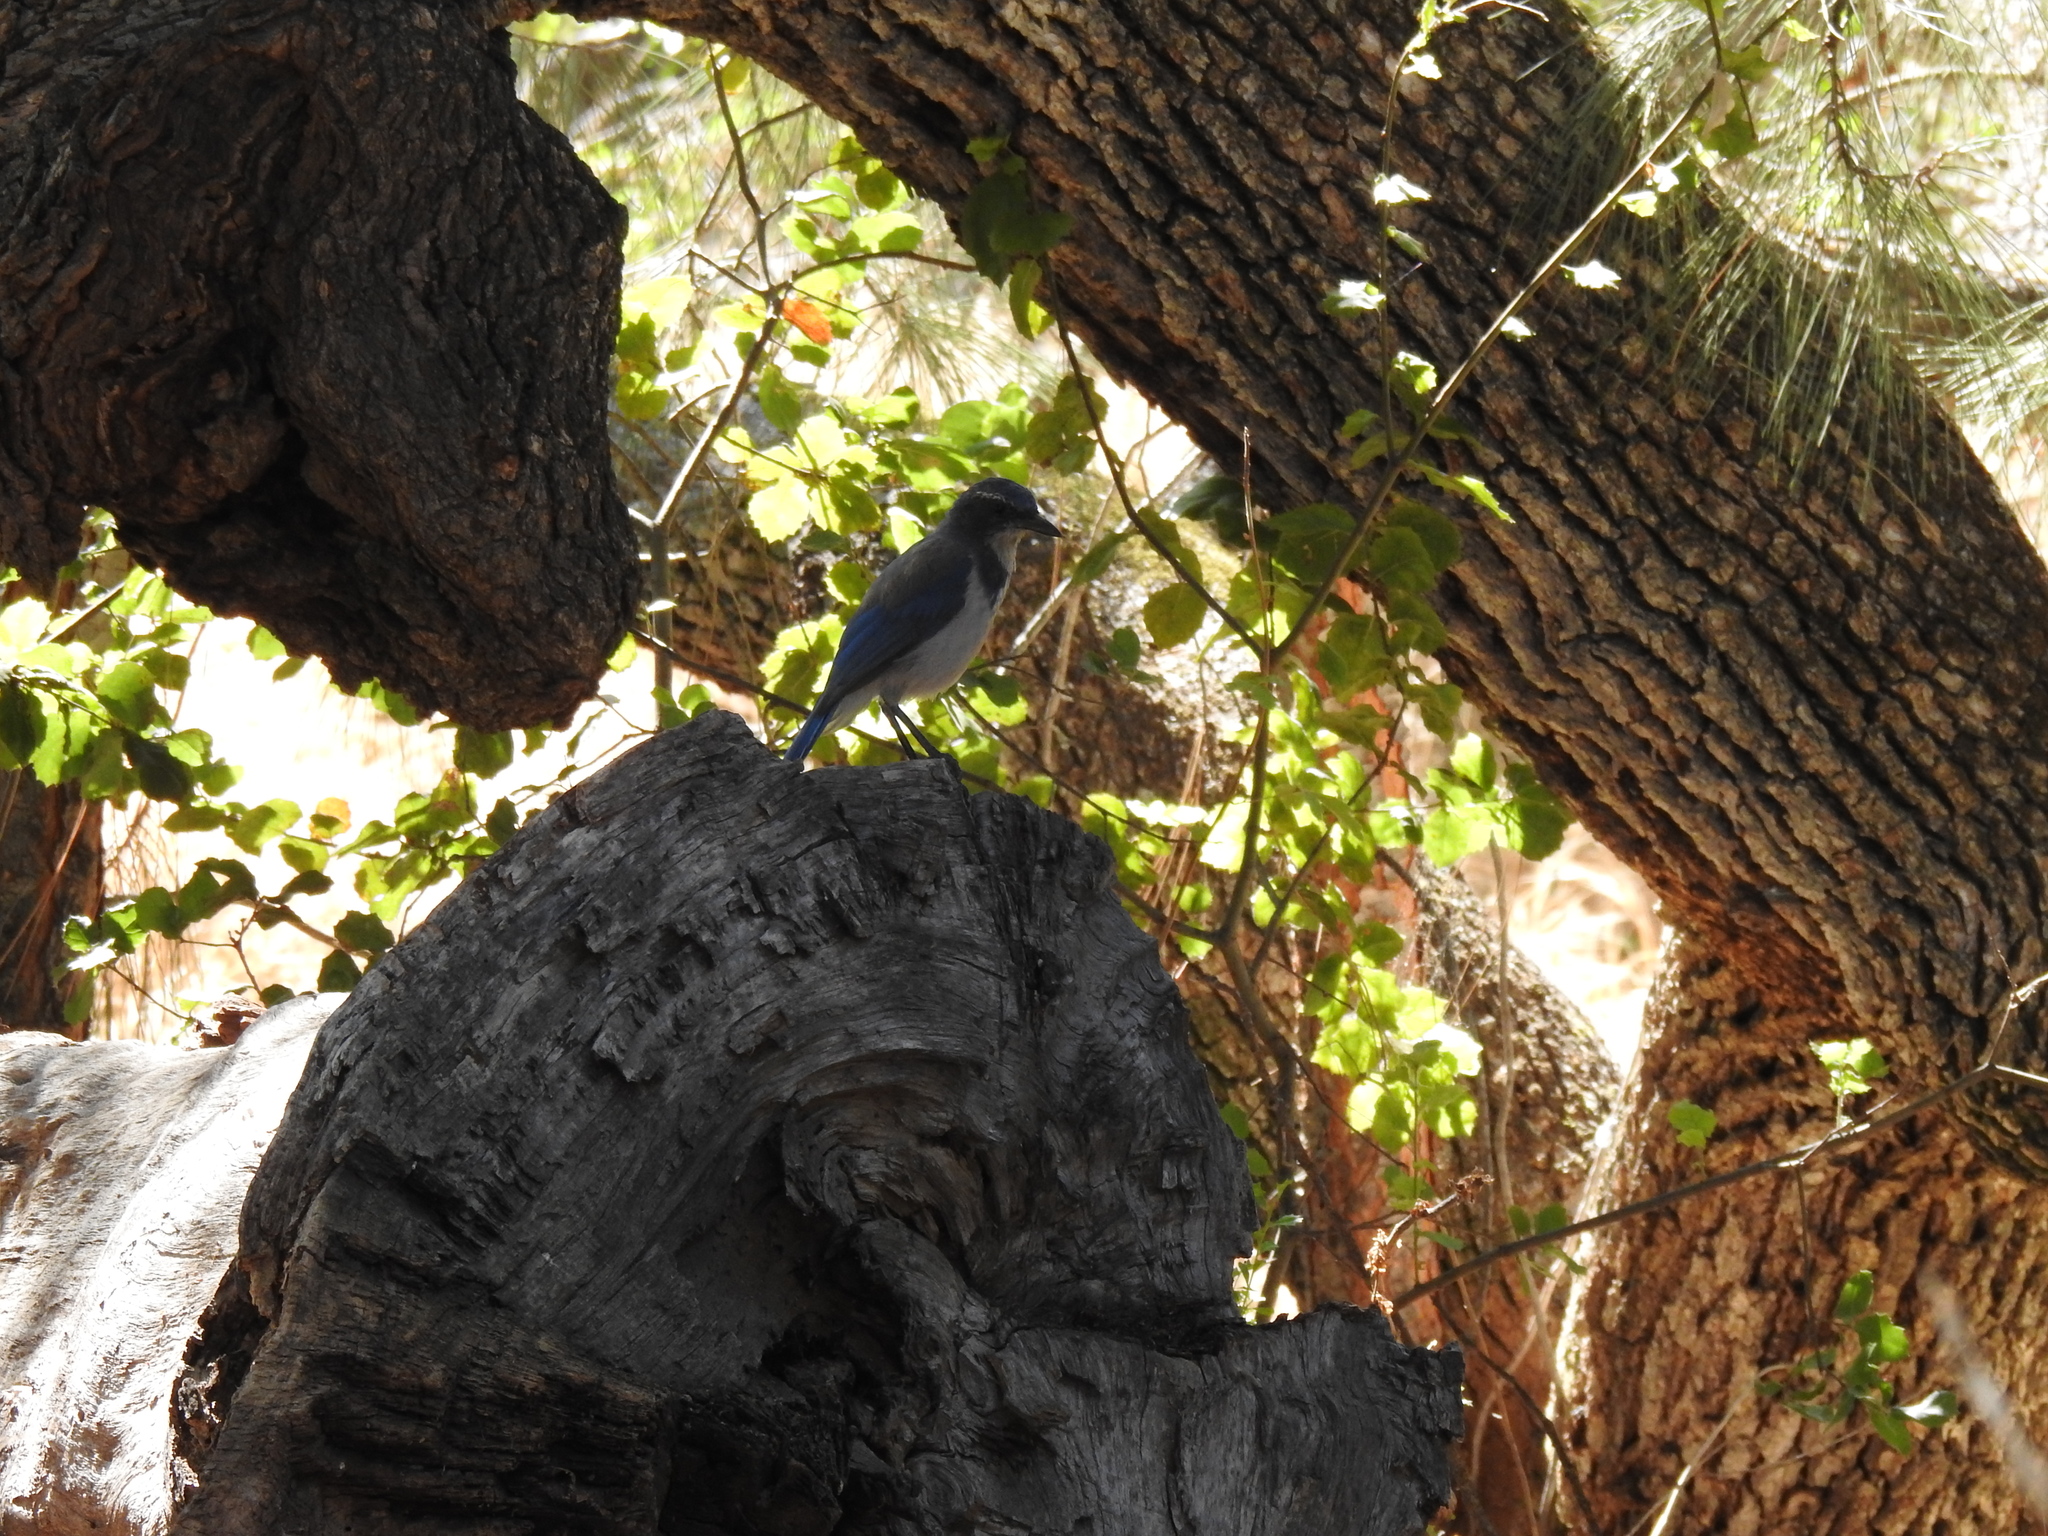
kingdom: Animalia
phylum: Chordata
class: Aves
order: Passeriformes
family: Corvidae
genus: Aphelocoma
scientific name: Aphelocoma californica
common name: California scrub-jay
